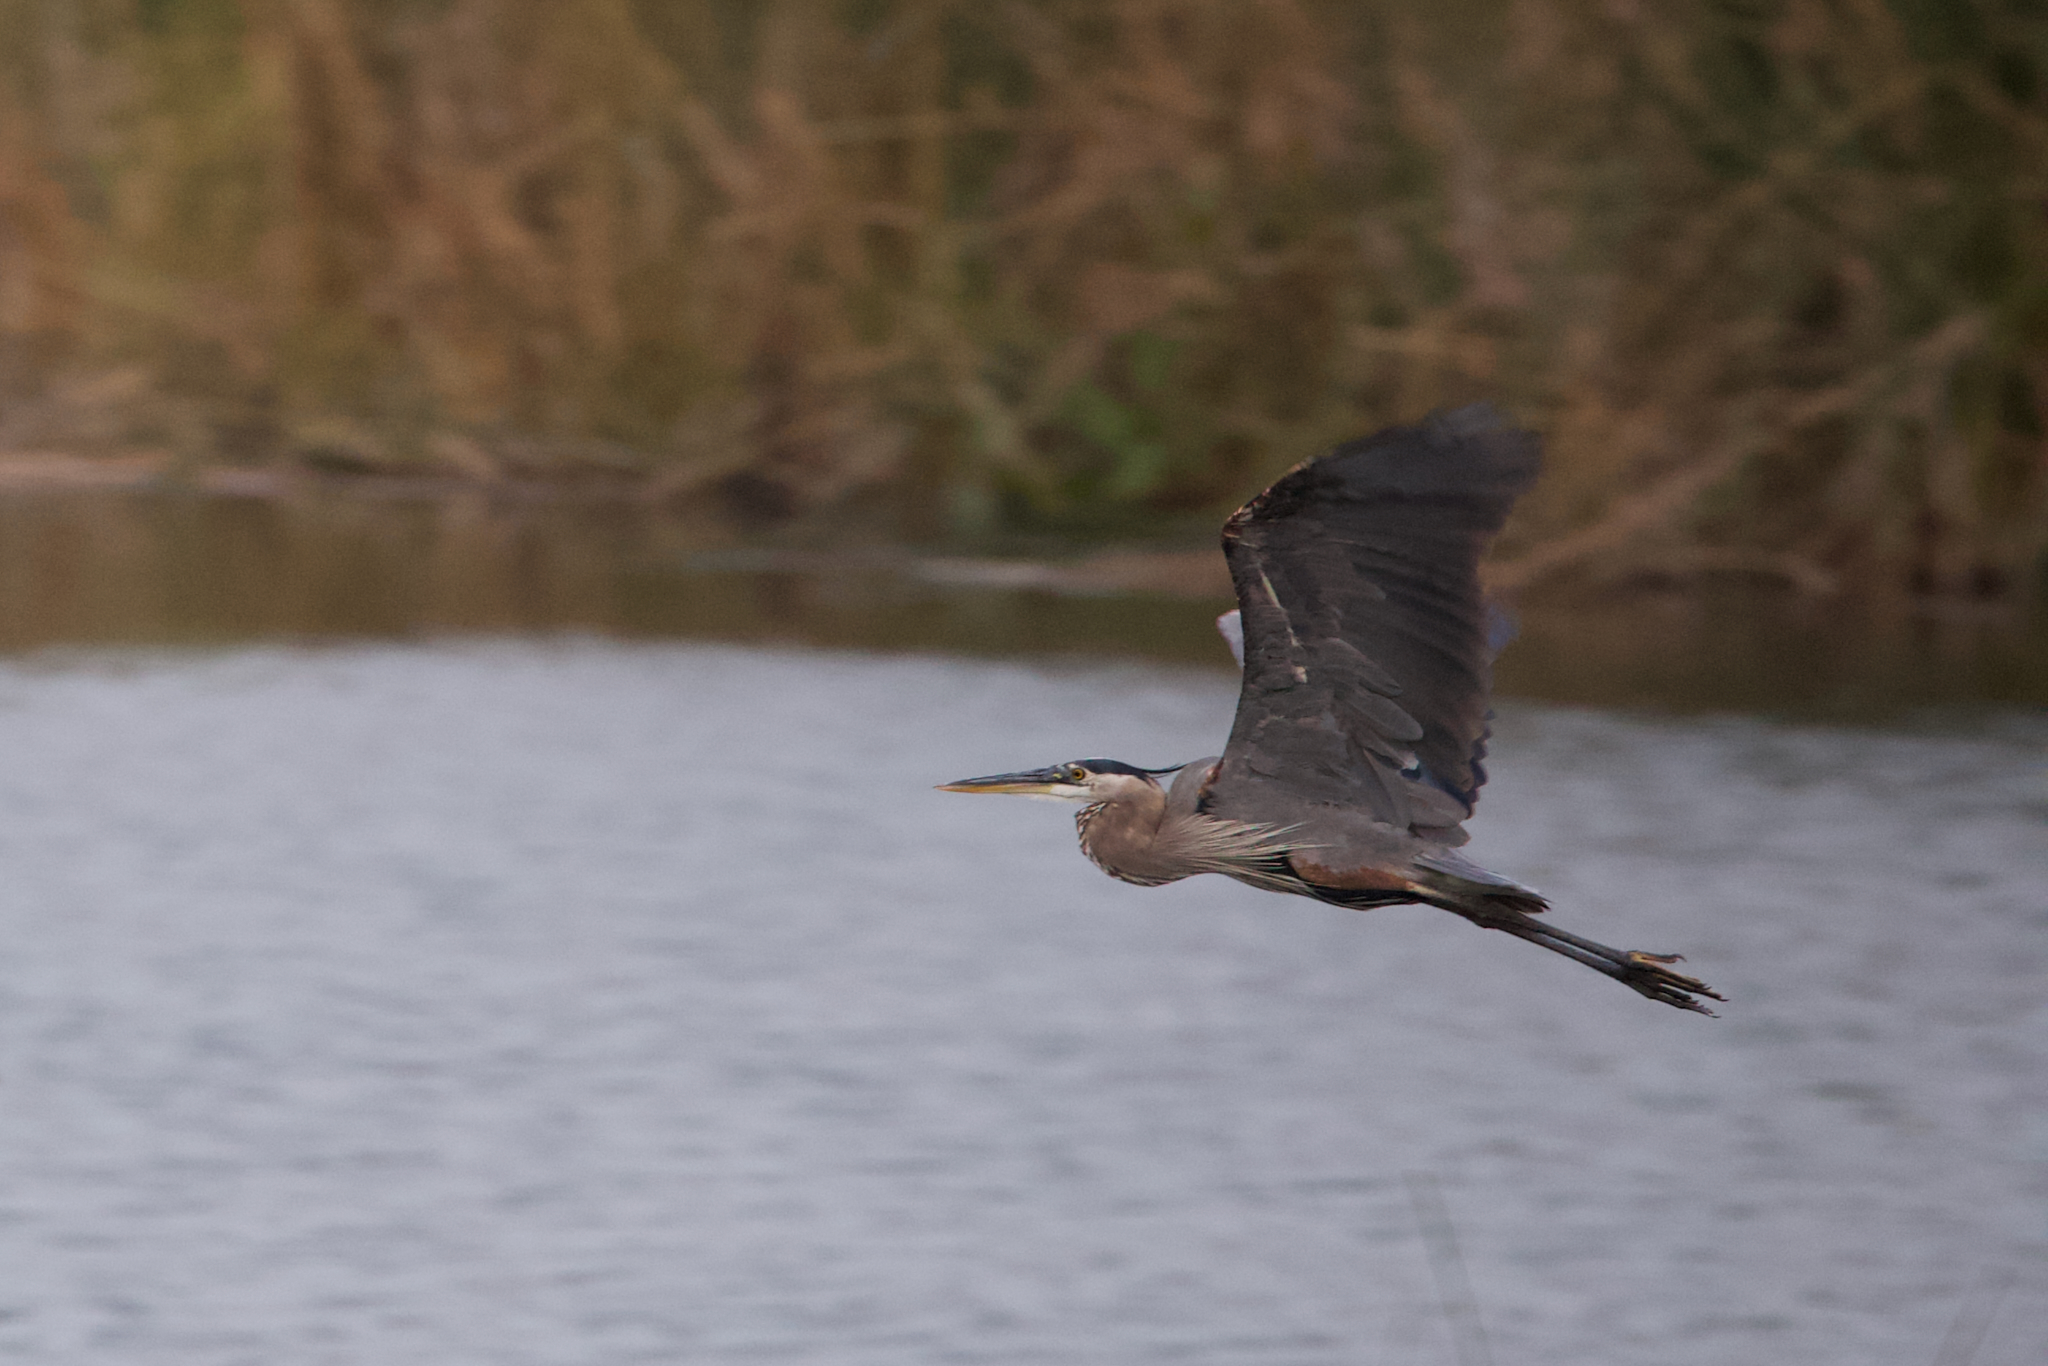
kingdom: Animalia
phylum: Chordata
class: Aves
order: Pelecaniformes
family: Ardeidae
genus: Ardea
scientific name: Ardea herodias
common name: Great blue heron
